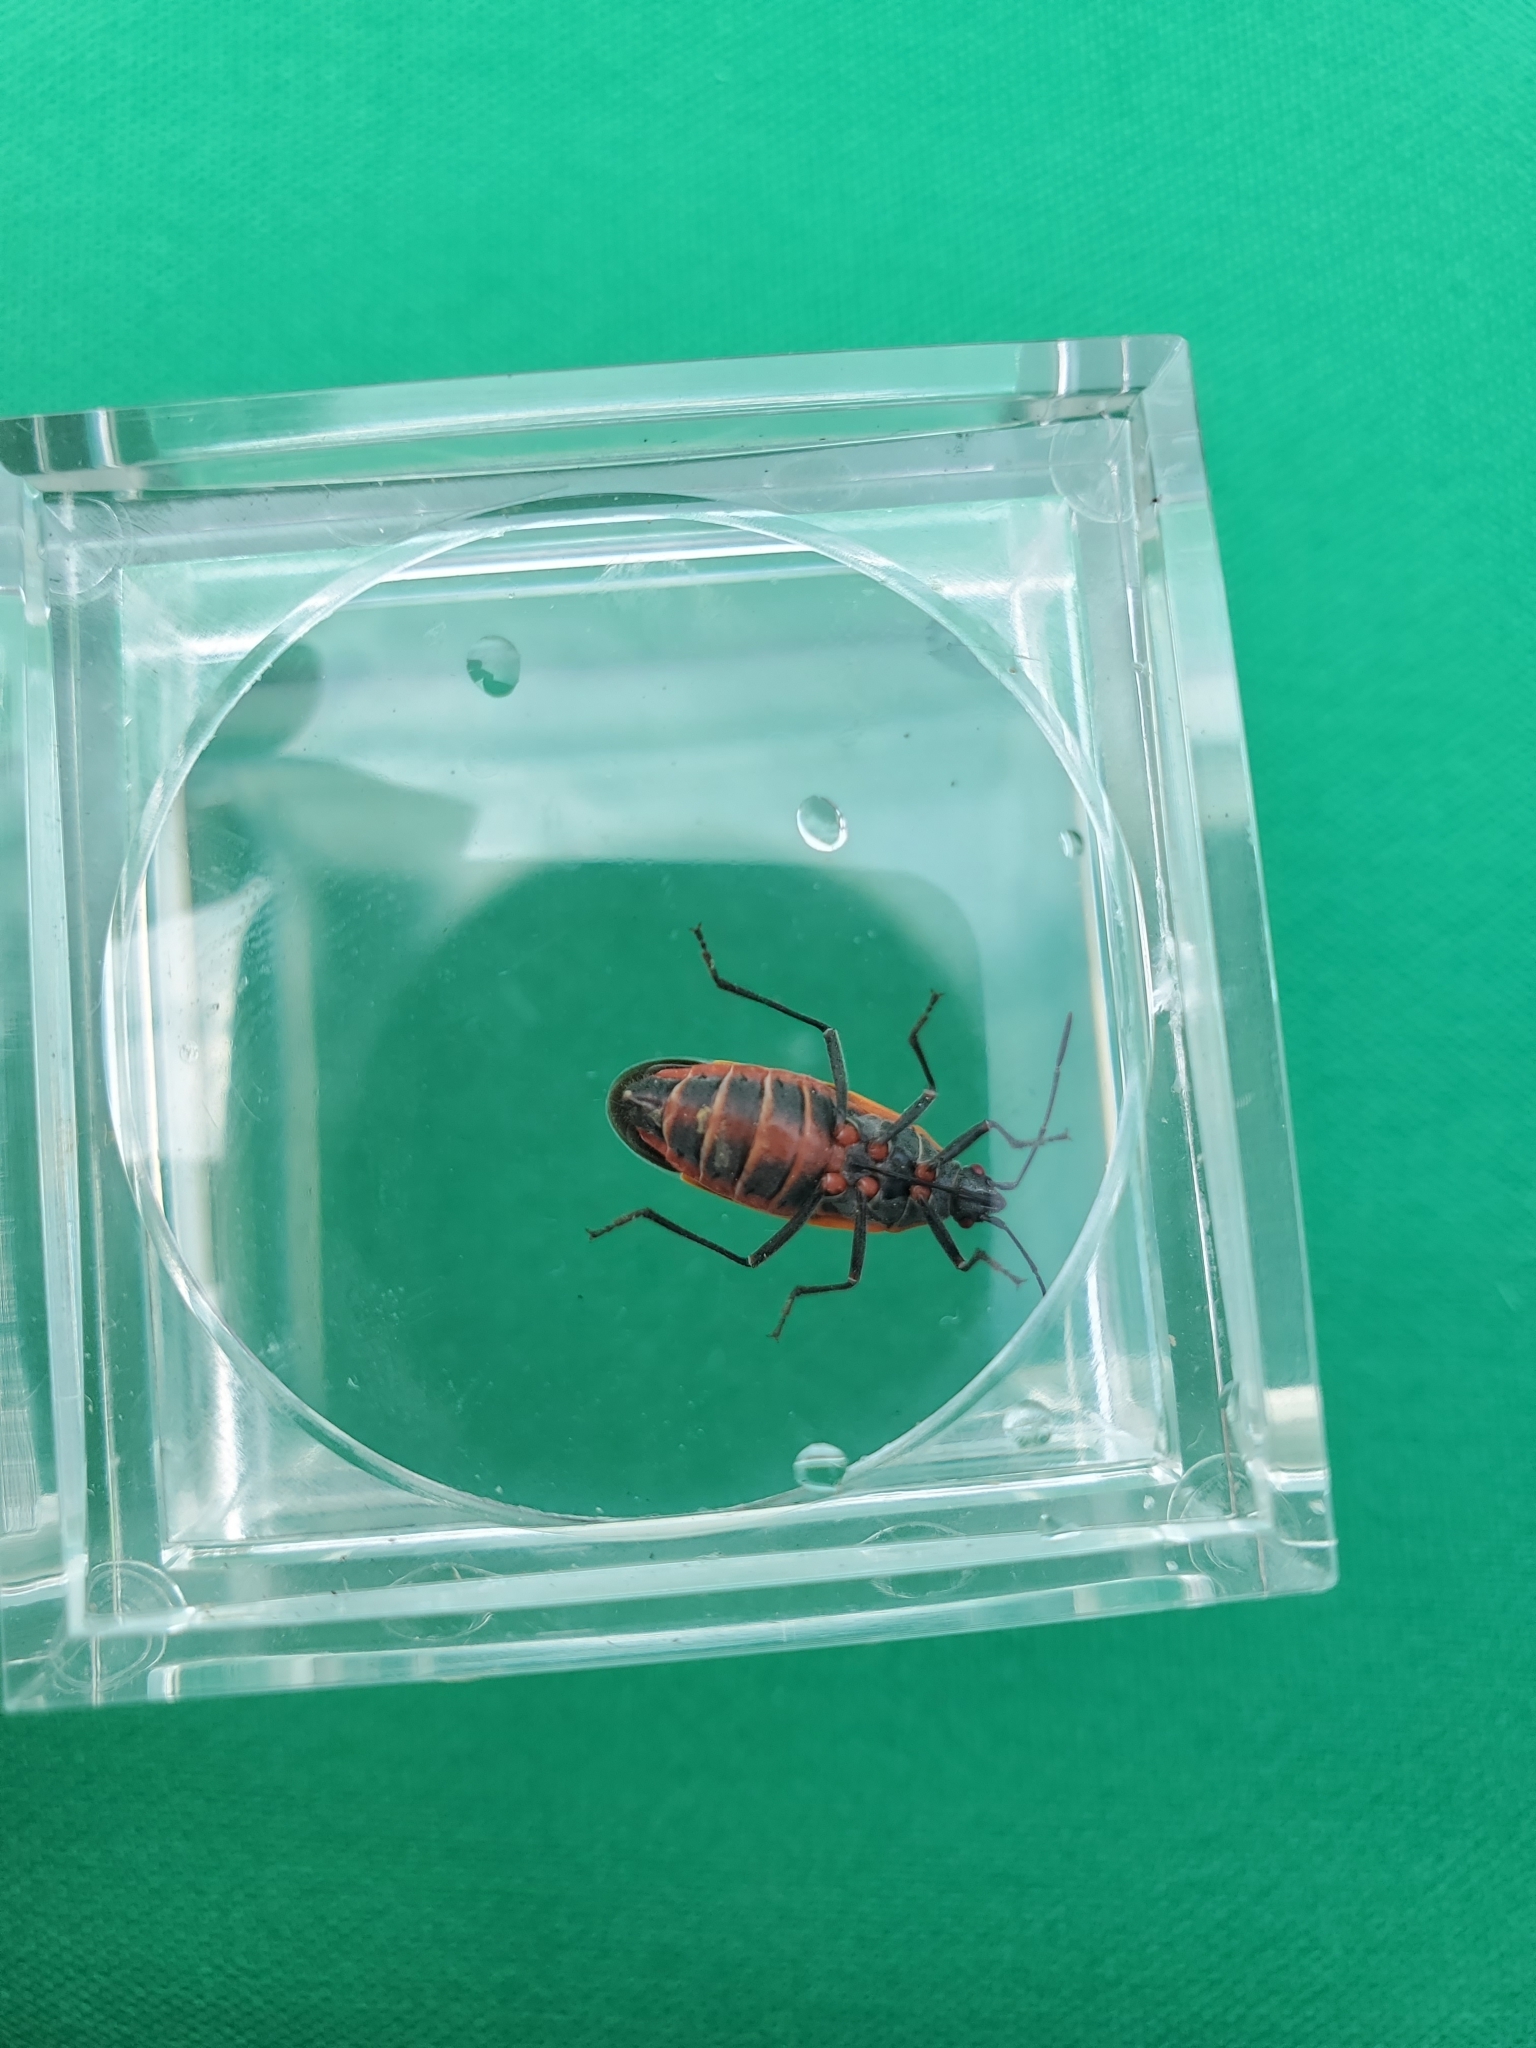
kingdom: Animalia
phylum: Arthropoda
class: Insecta
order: Hemiptera
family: Rhopalidae
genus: Boisea
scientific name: Boisea trivittata
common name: Boxelder bug
